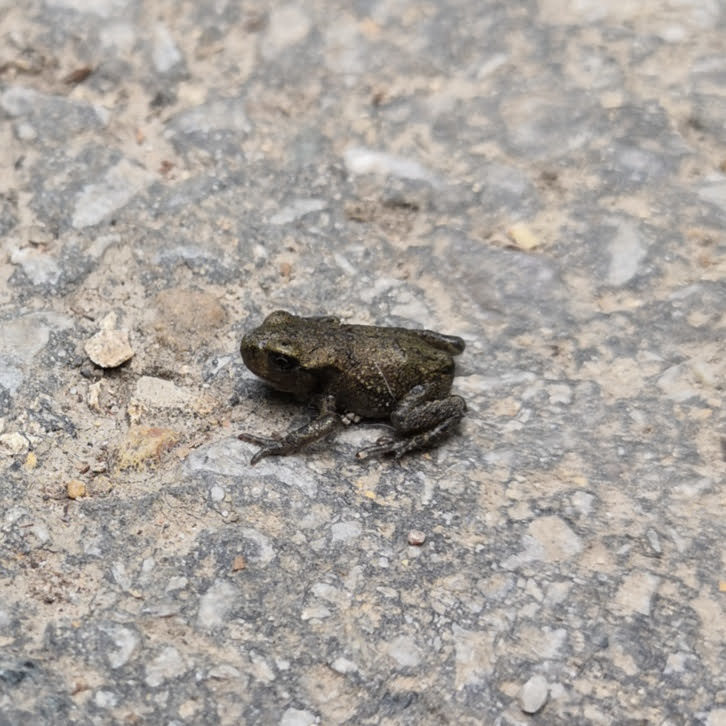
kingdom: Animalia
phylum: Chordata
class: Amphibia
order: Anura
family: Bufonidae
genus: Bufo
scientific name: Bufo bufo
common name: Common toad
